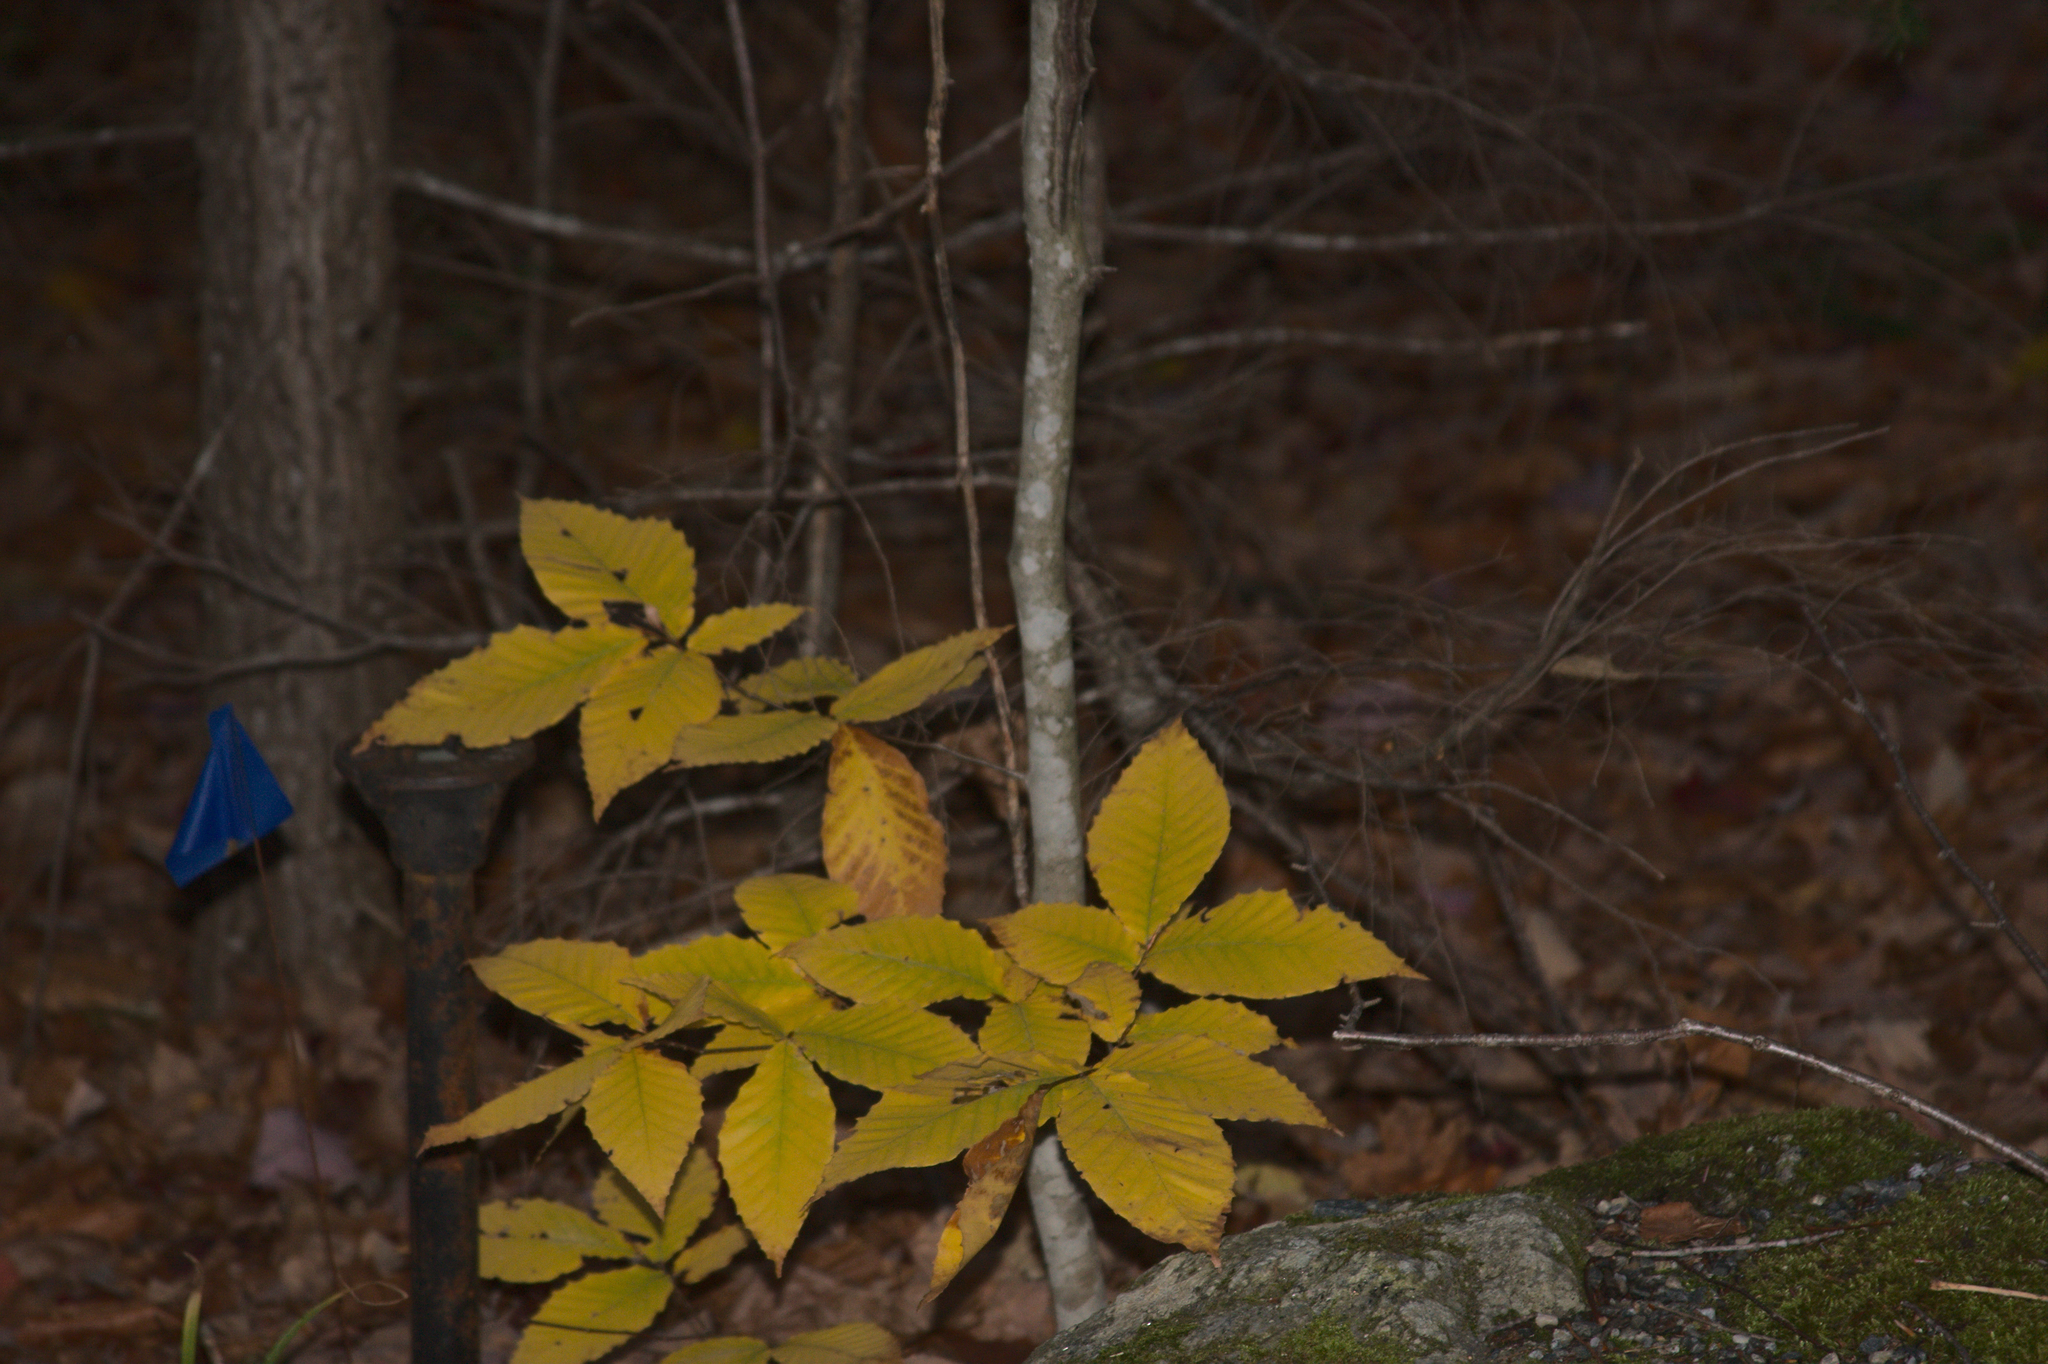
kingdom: Plantae
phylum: Tracheophyta
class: Magnoliopsida
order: Fagales
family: Fagaceae
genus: Fagus
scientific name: Fagus grandifolia
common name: American beech
